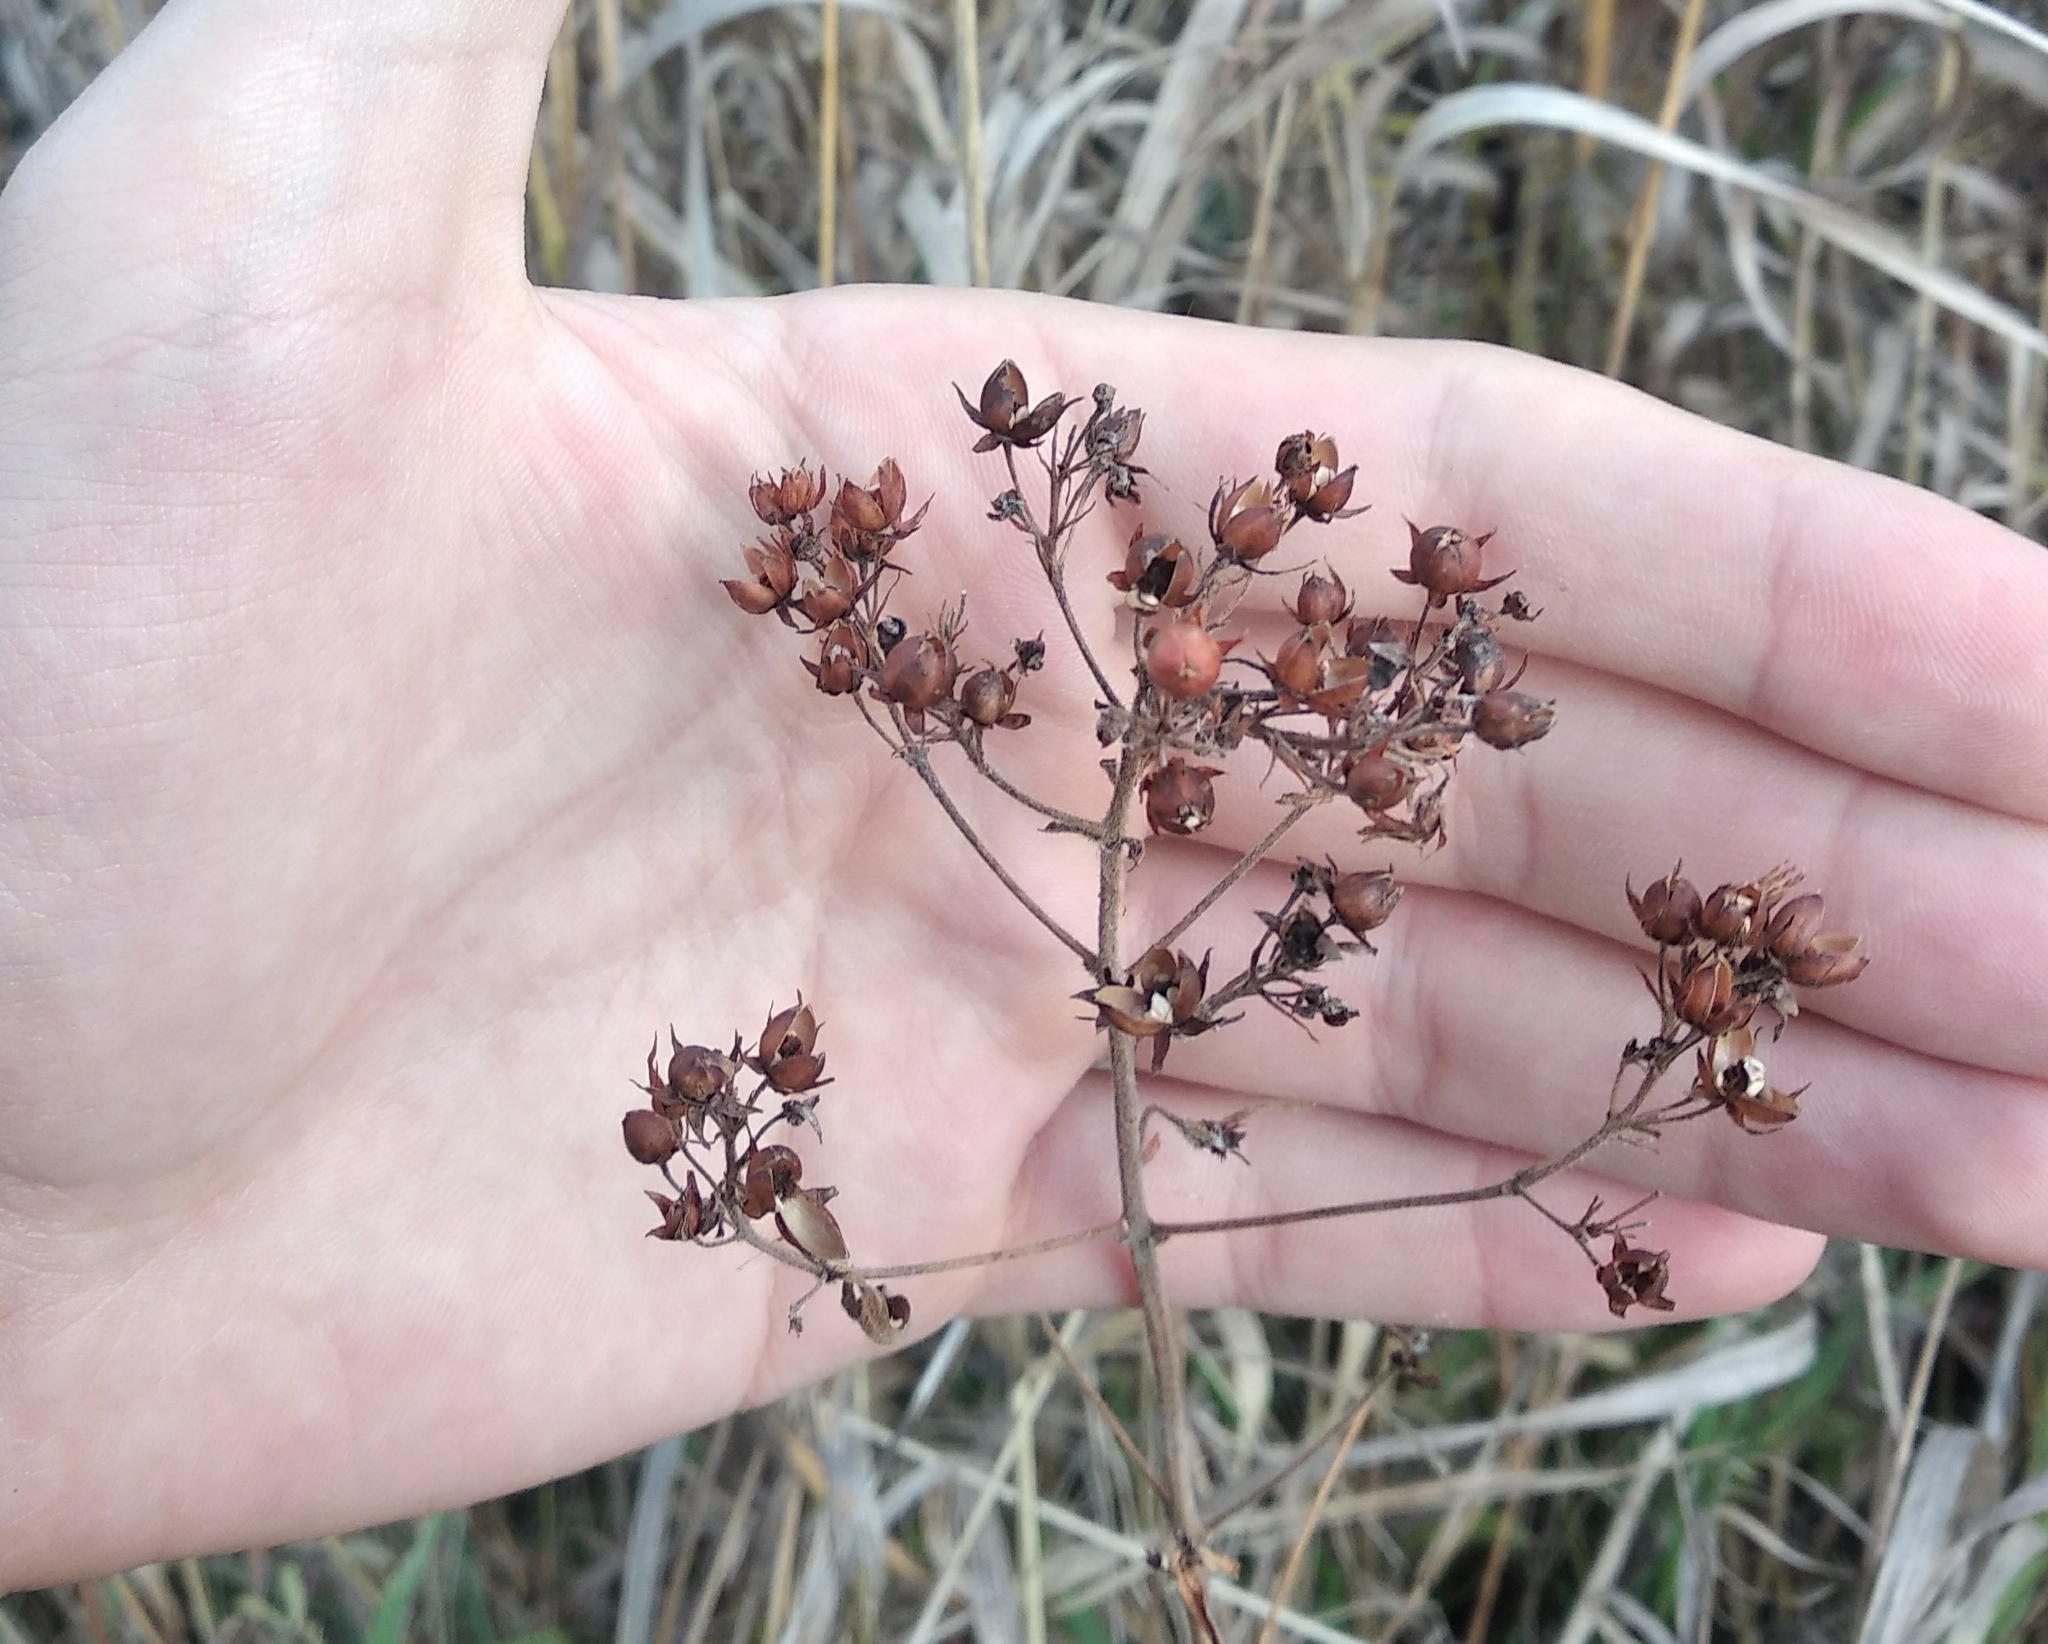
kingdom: Plantae
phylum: Tracheophyta
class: Magnoliopsida
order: Ericales
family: Primulaceae
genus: Lysimachia
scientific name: Lysimachia vulgaris
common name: Yellow loosestrife
